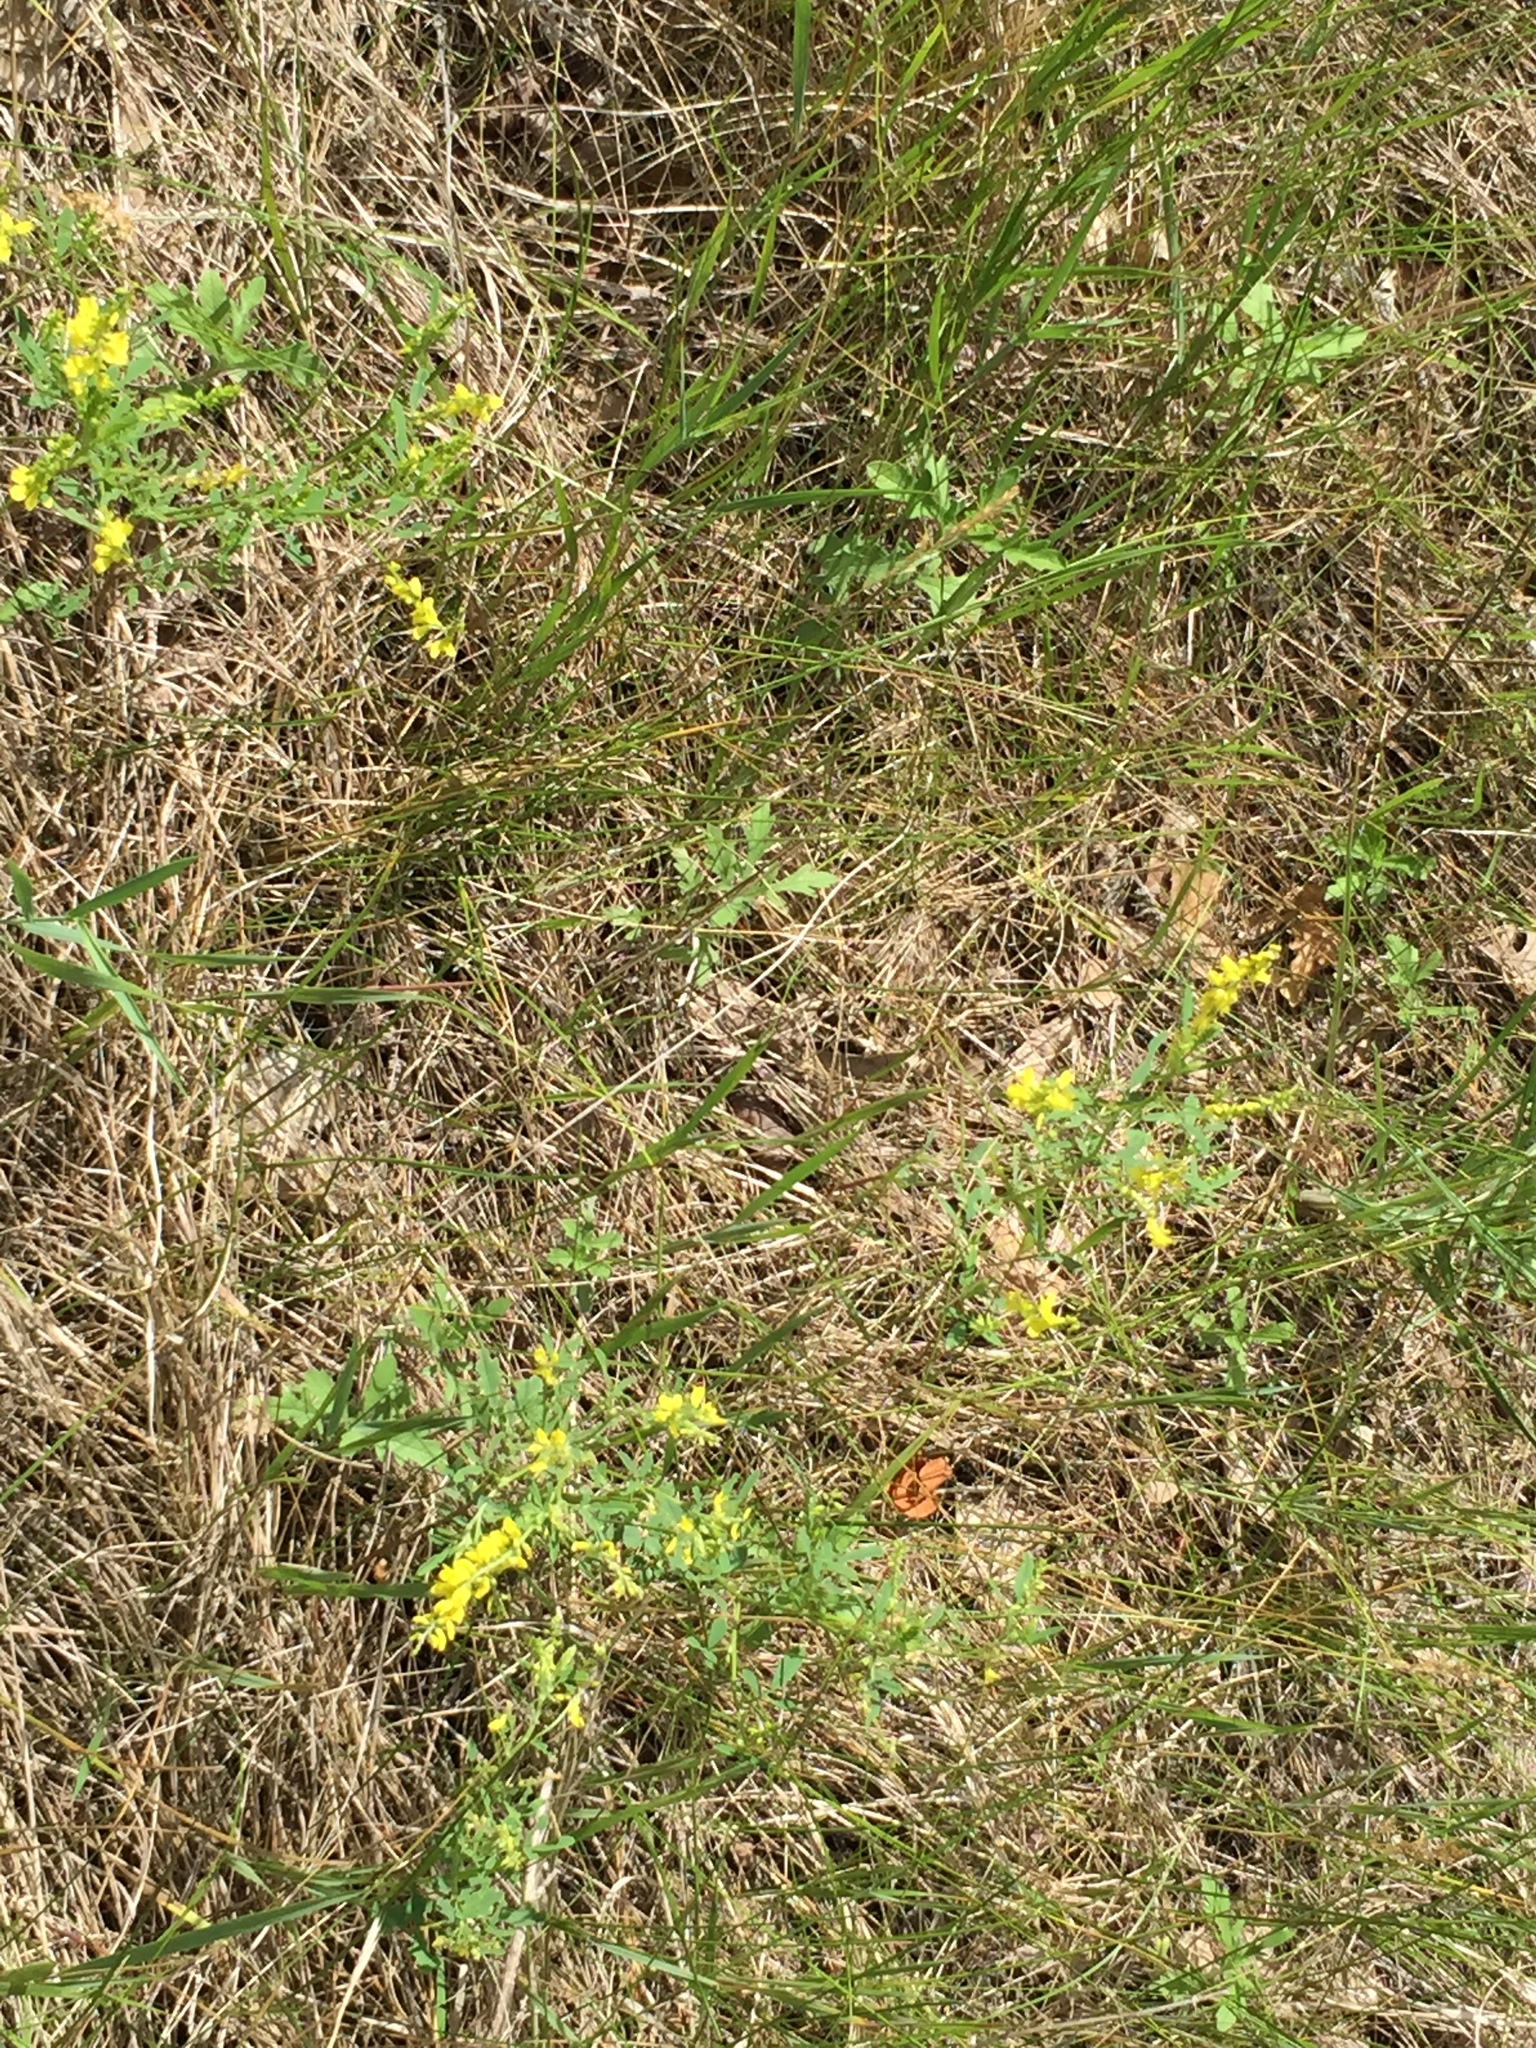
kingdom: Plantae
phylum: Tracheophyta
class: Magnoliopsida
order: Fabales
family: Fabaceae
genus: Melilotus
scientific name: Melilotus officinalis
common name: Sweetclover
